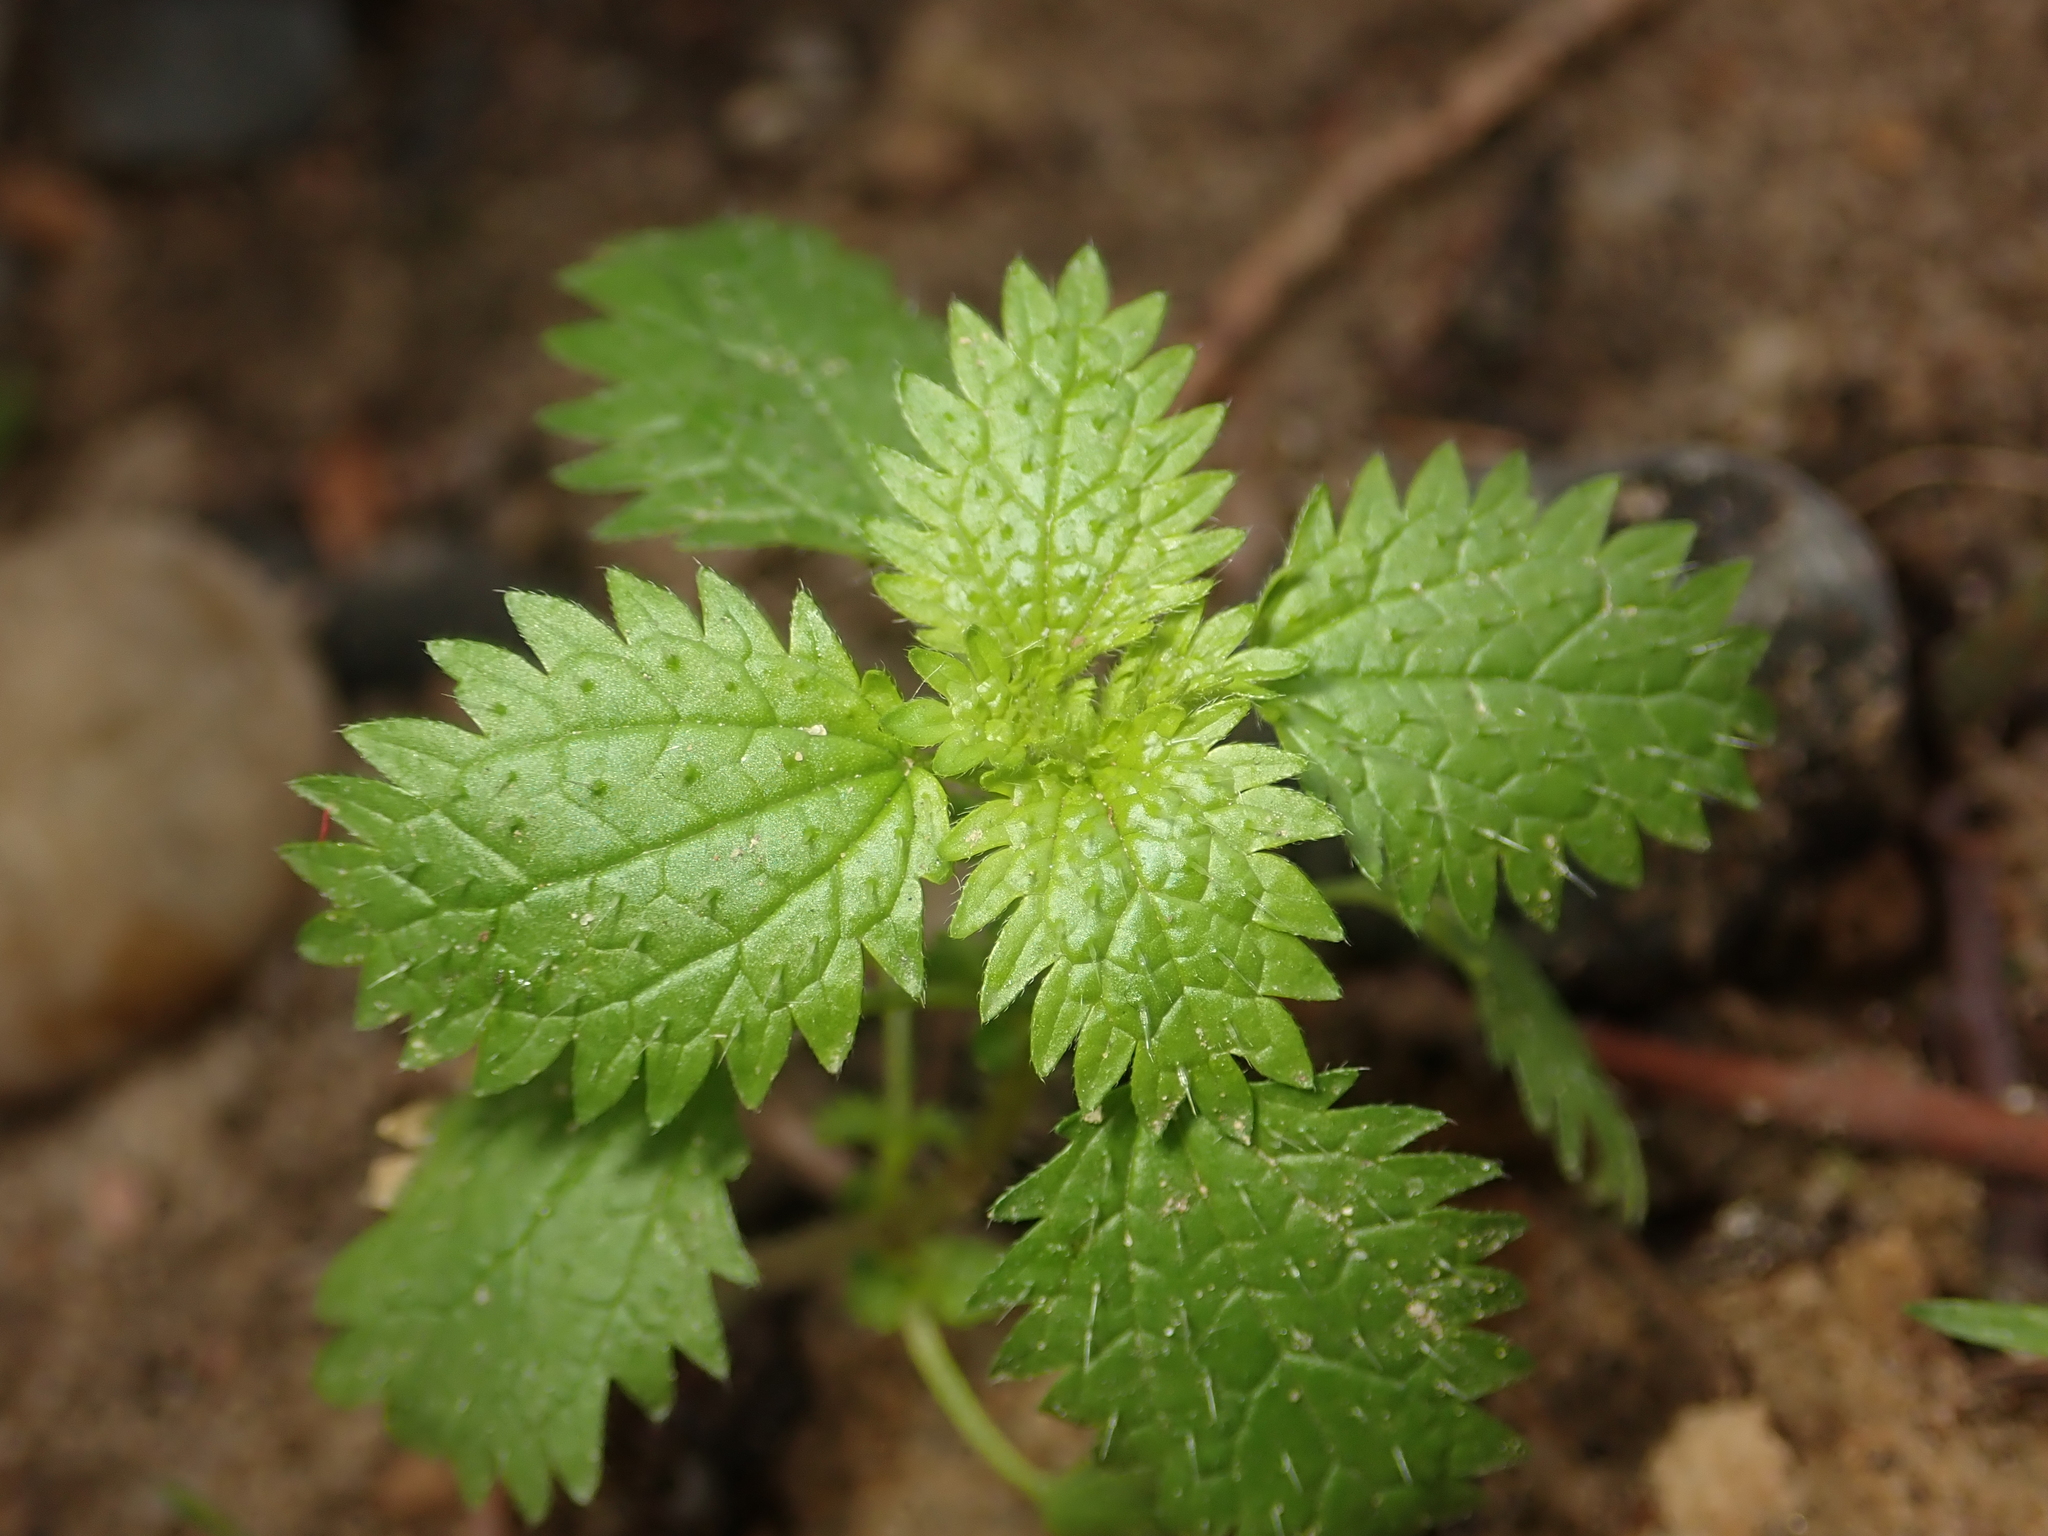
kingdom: Plantae
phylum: Tracheophyta
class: Magnoliopsida
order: Rosales
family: Urticaceae
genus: Urtica
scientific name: Urtica urens
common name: Dwarf nettle
